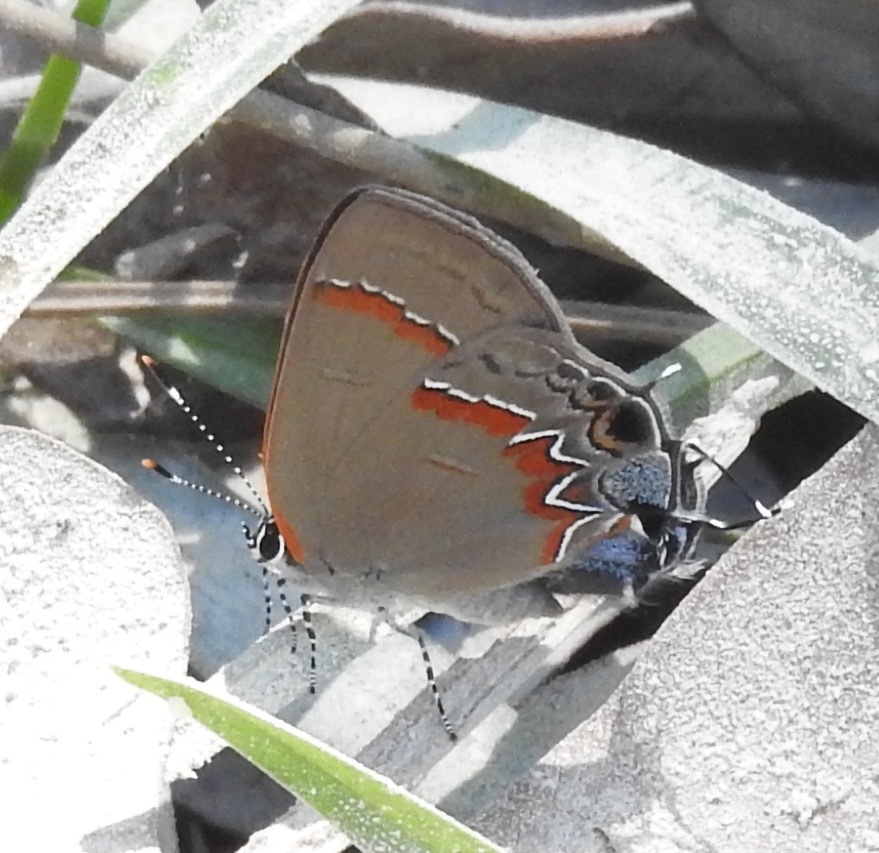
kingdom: Animalia
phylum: Arthropoda
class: Insecta
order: Lepidoptera
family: Lycaenidae
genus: Calycopis
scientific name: Calycopis cecrops
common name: Red-banded hairstreak
